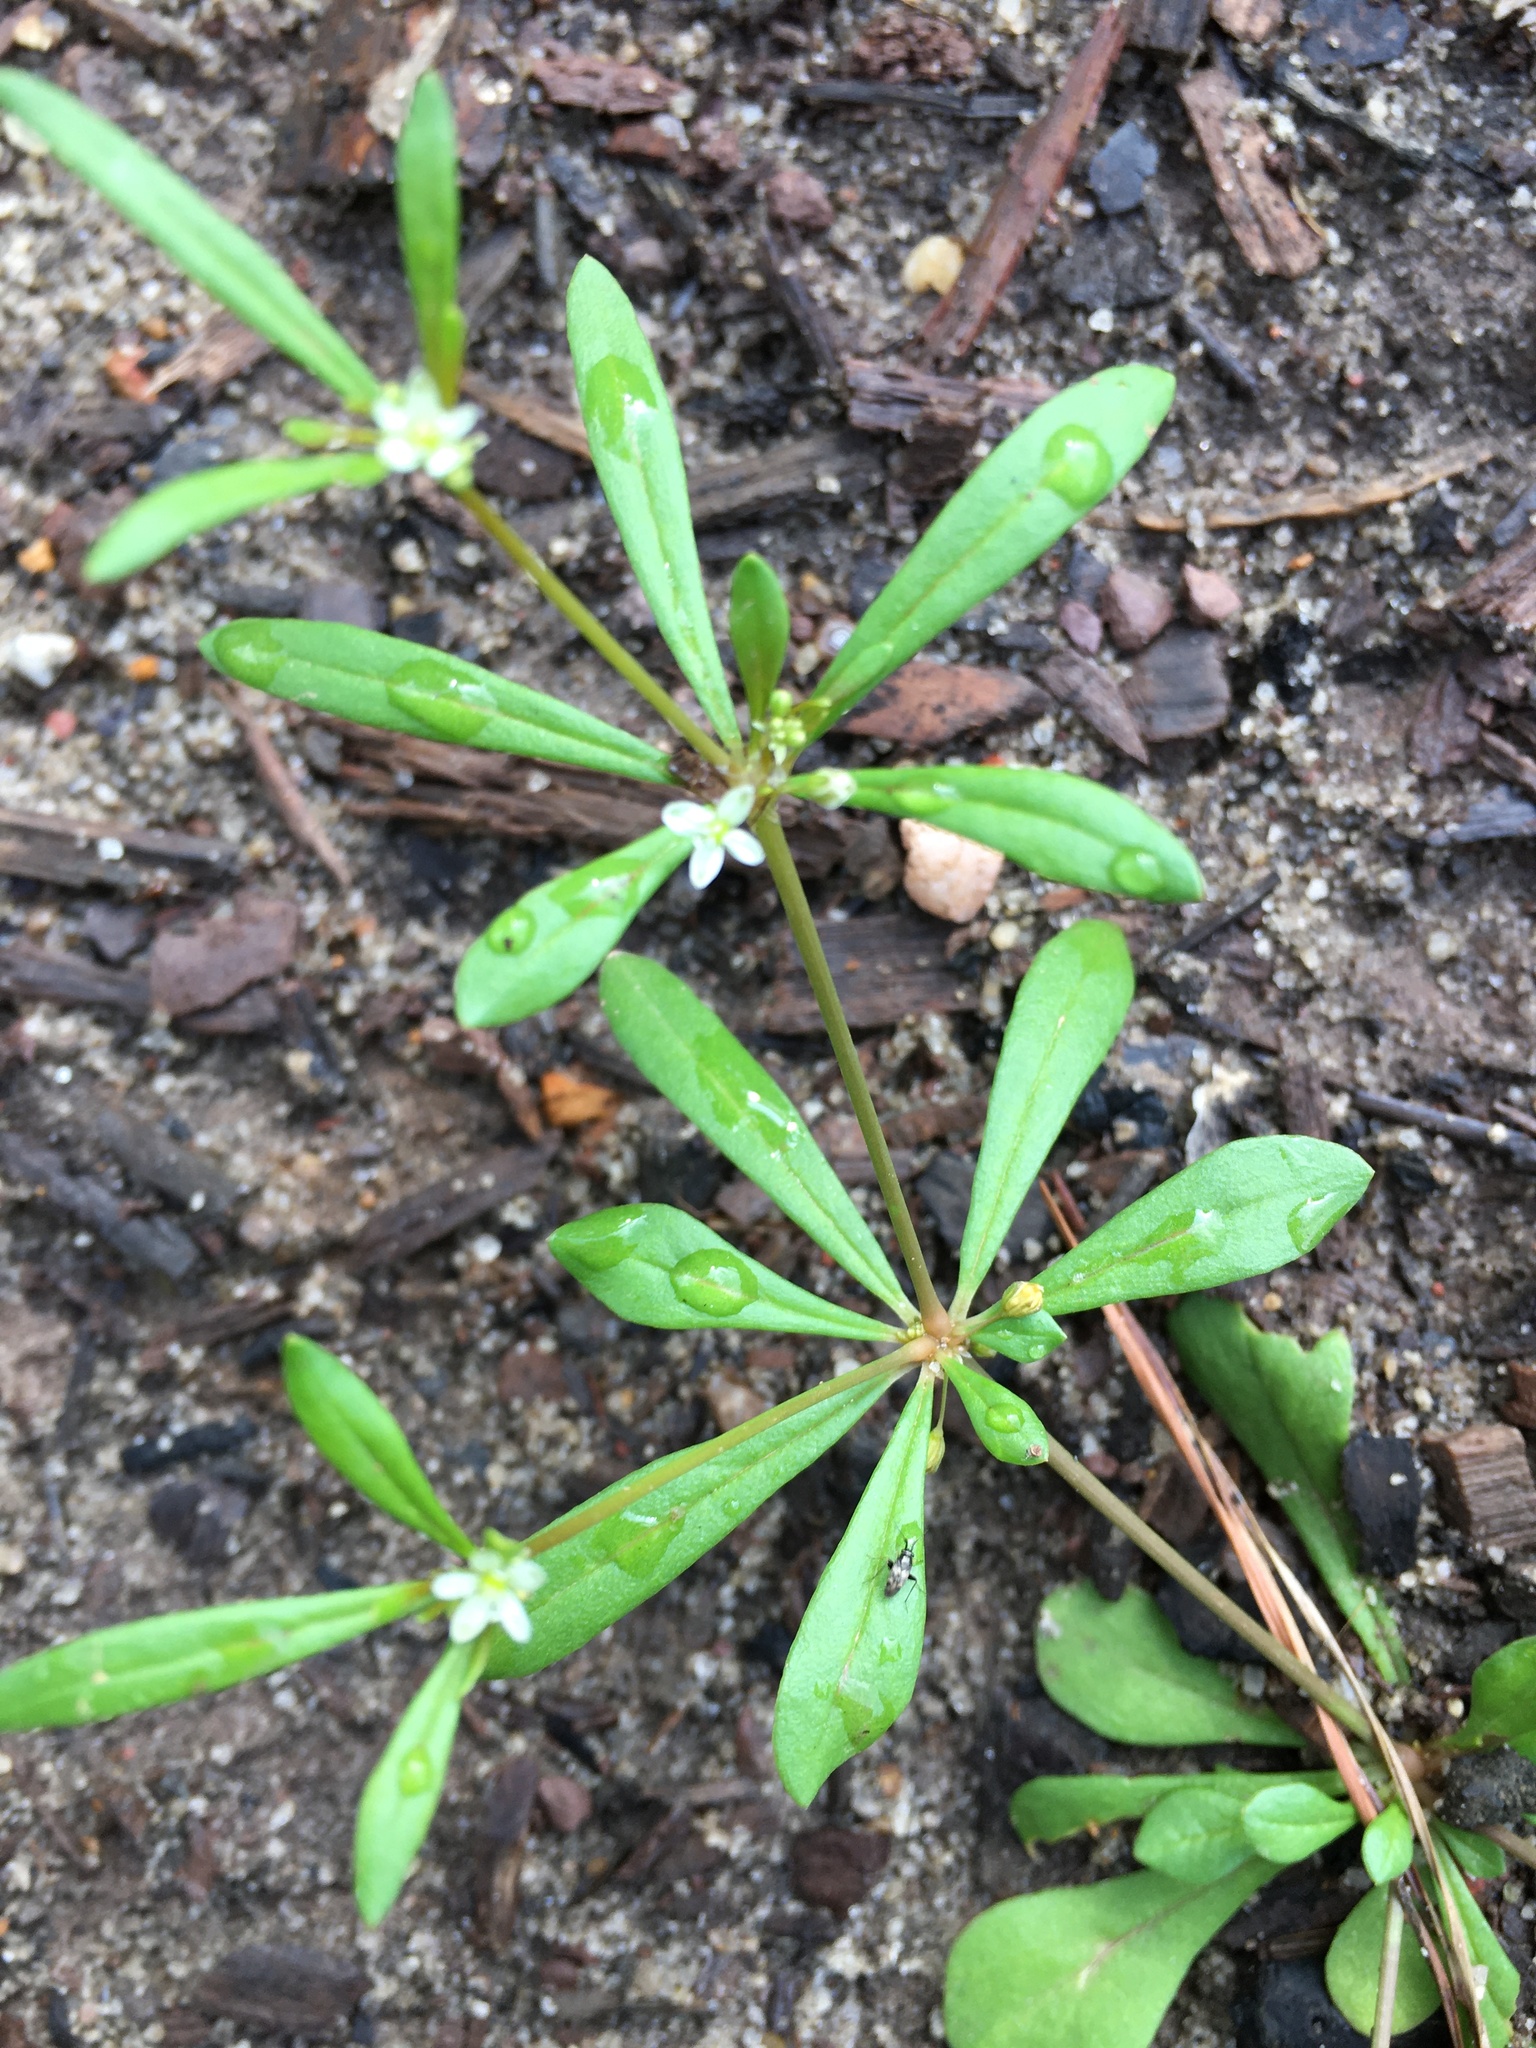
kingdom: Plantae
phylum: Tracheophyta
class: Magnoliopsida
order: Caryophyllales
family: Molluginaceae
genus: Mollugo
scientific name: Mollugo verticillata
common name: Green carpetweed
